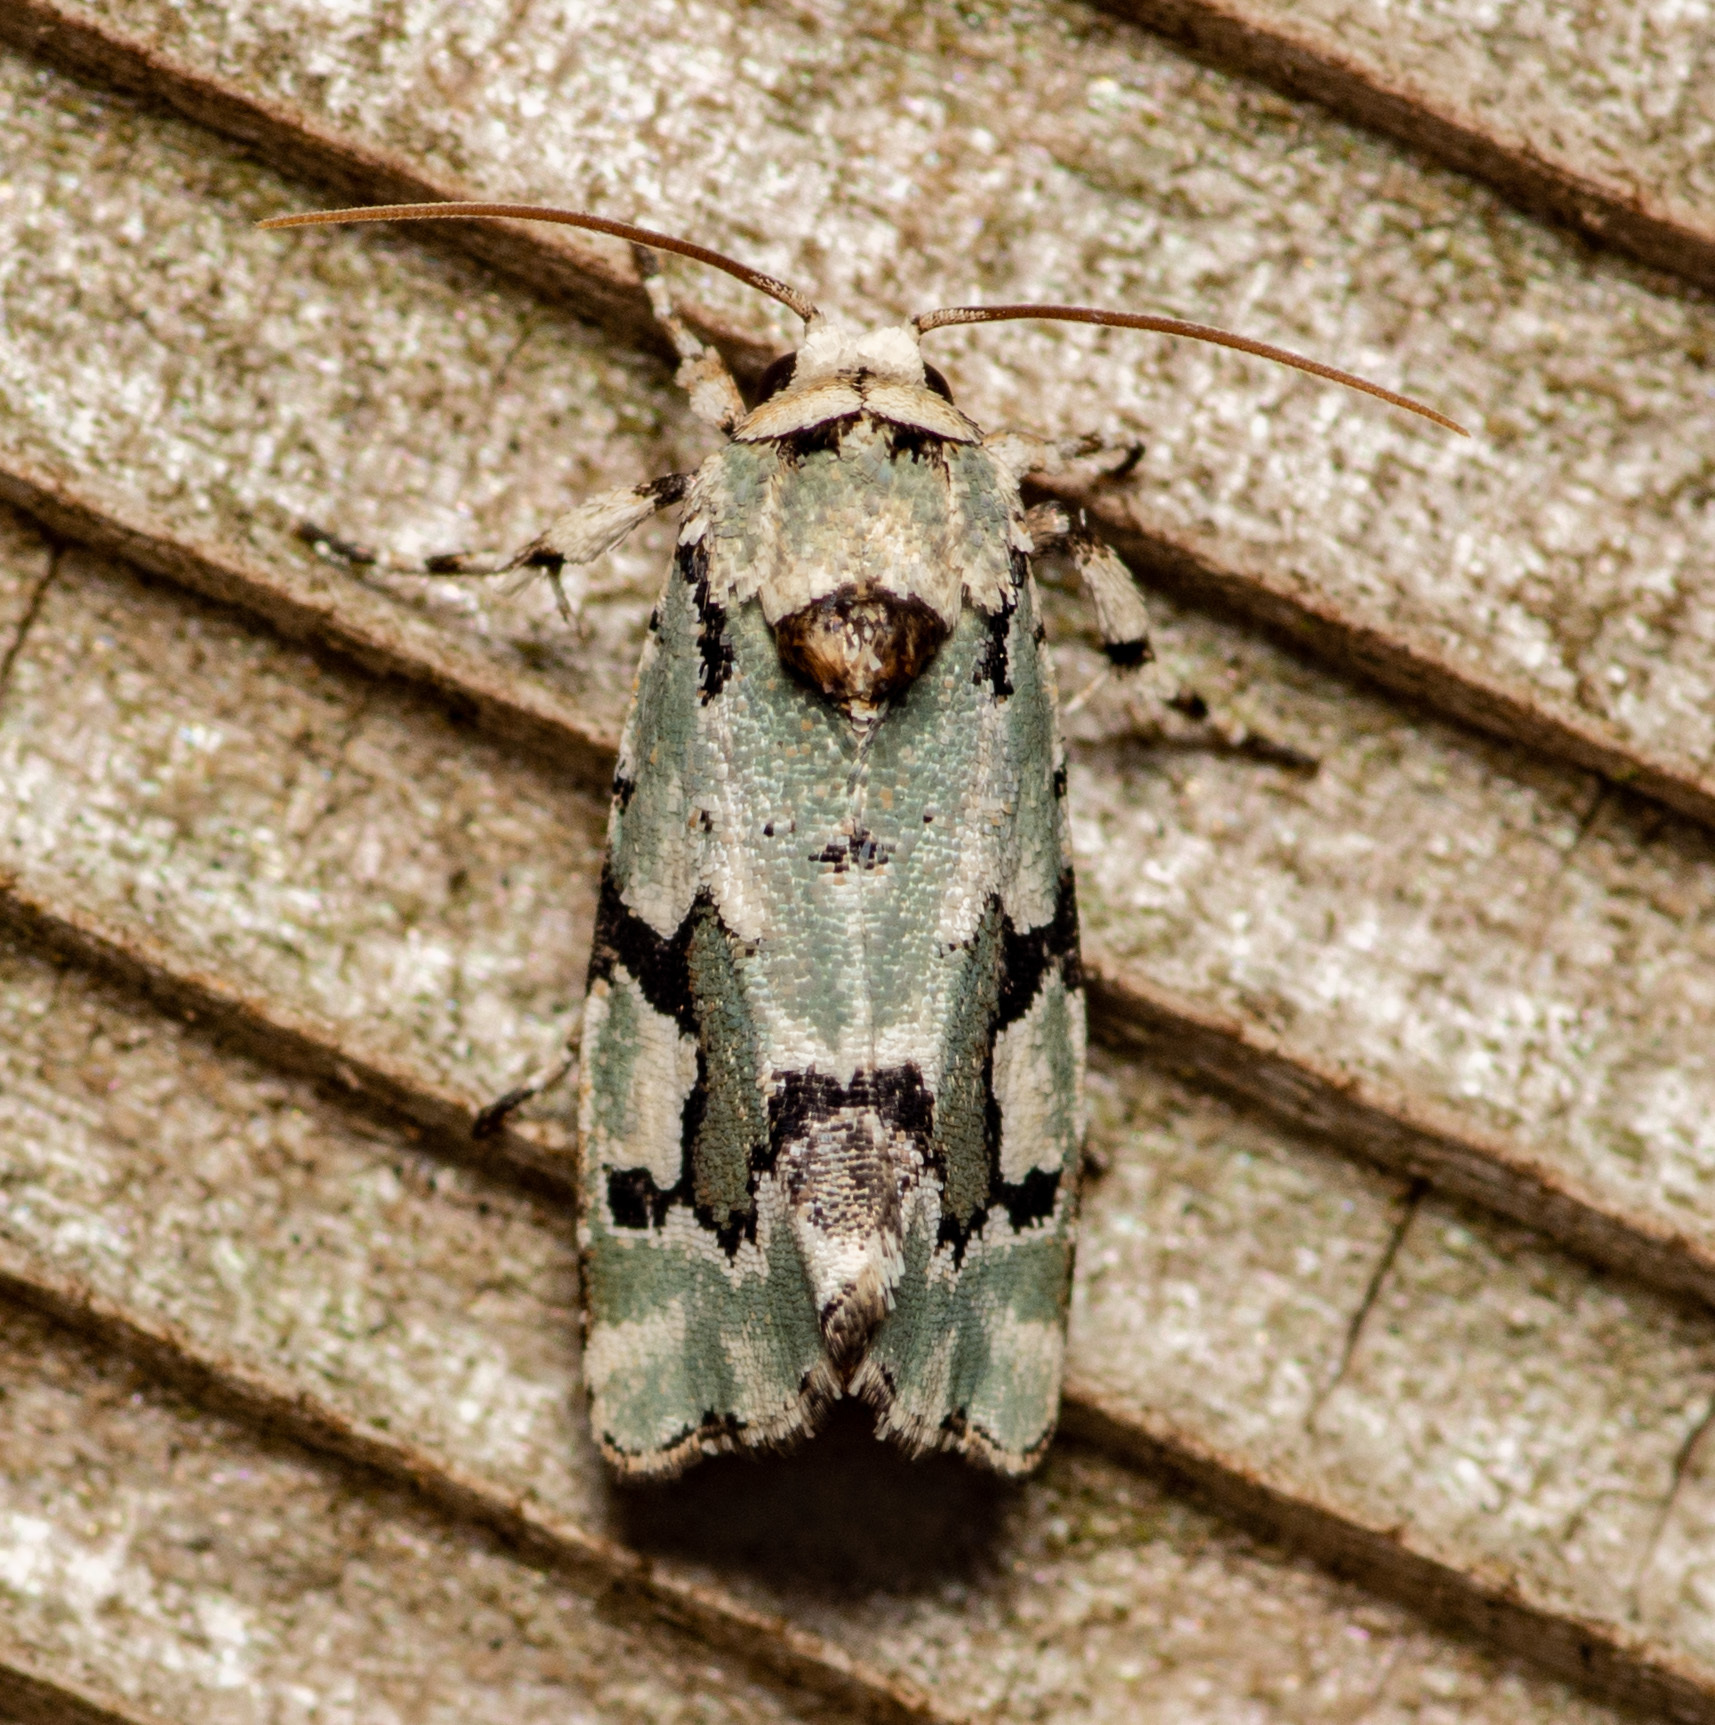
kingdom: Animalia
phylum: Arthropoda
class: Insecta
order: Lepidoptera
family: Noctuidae
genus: Emarginea
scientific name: Emarginea percara
